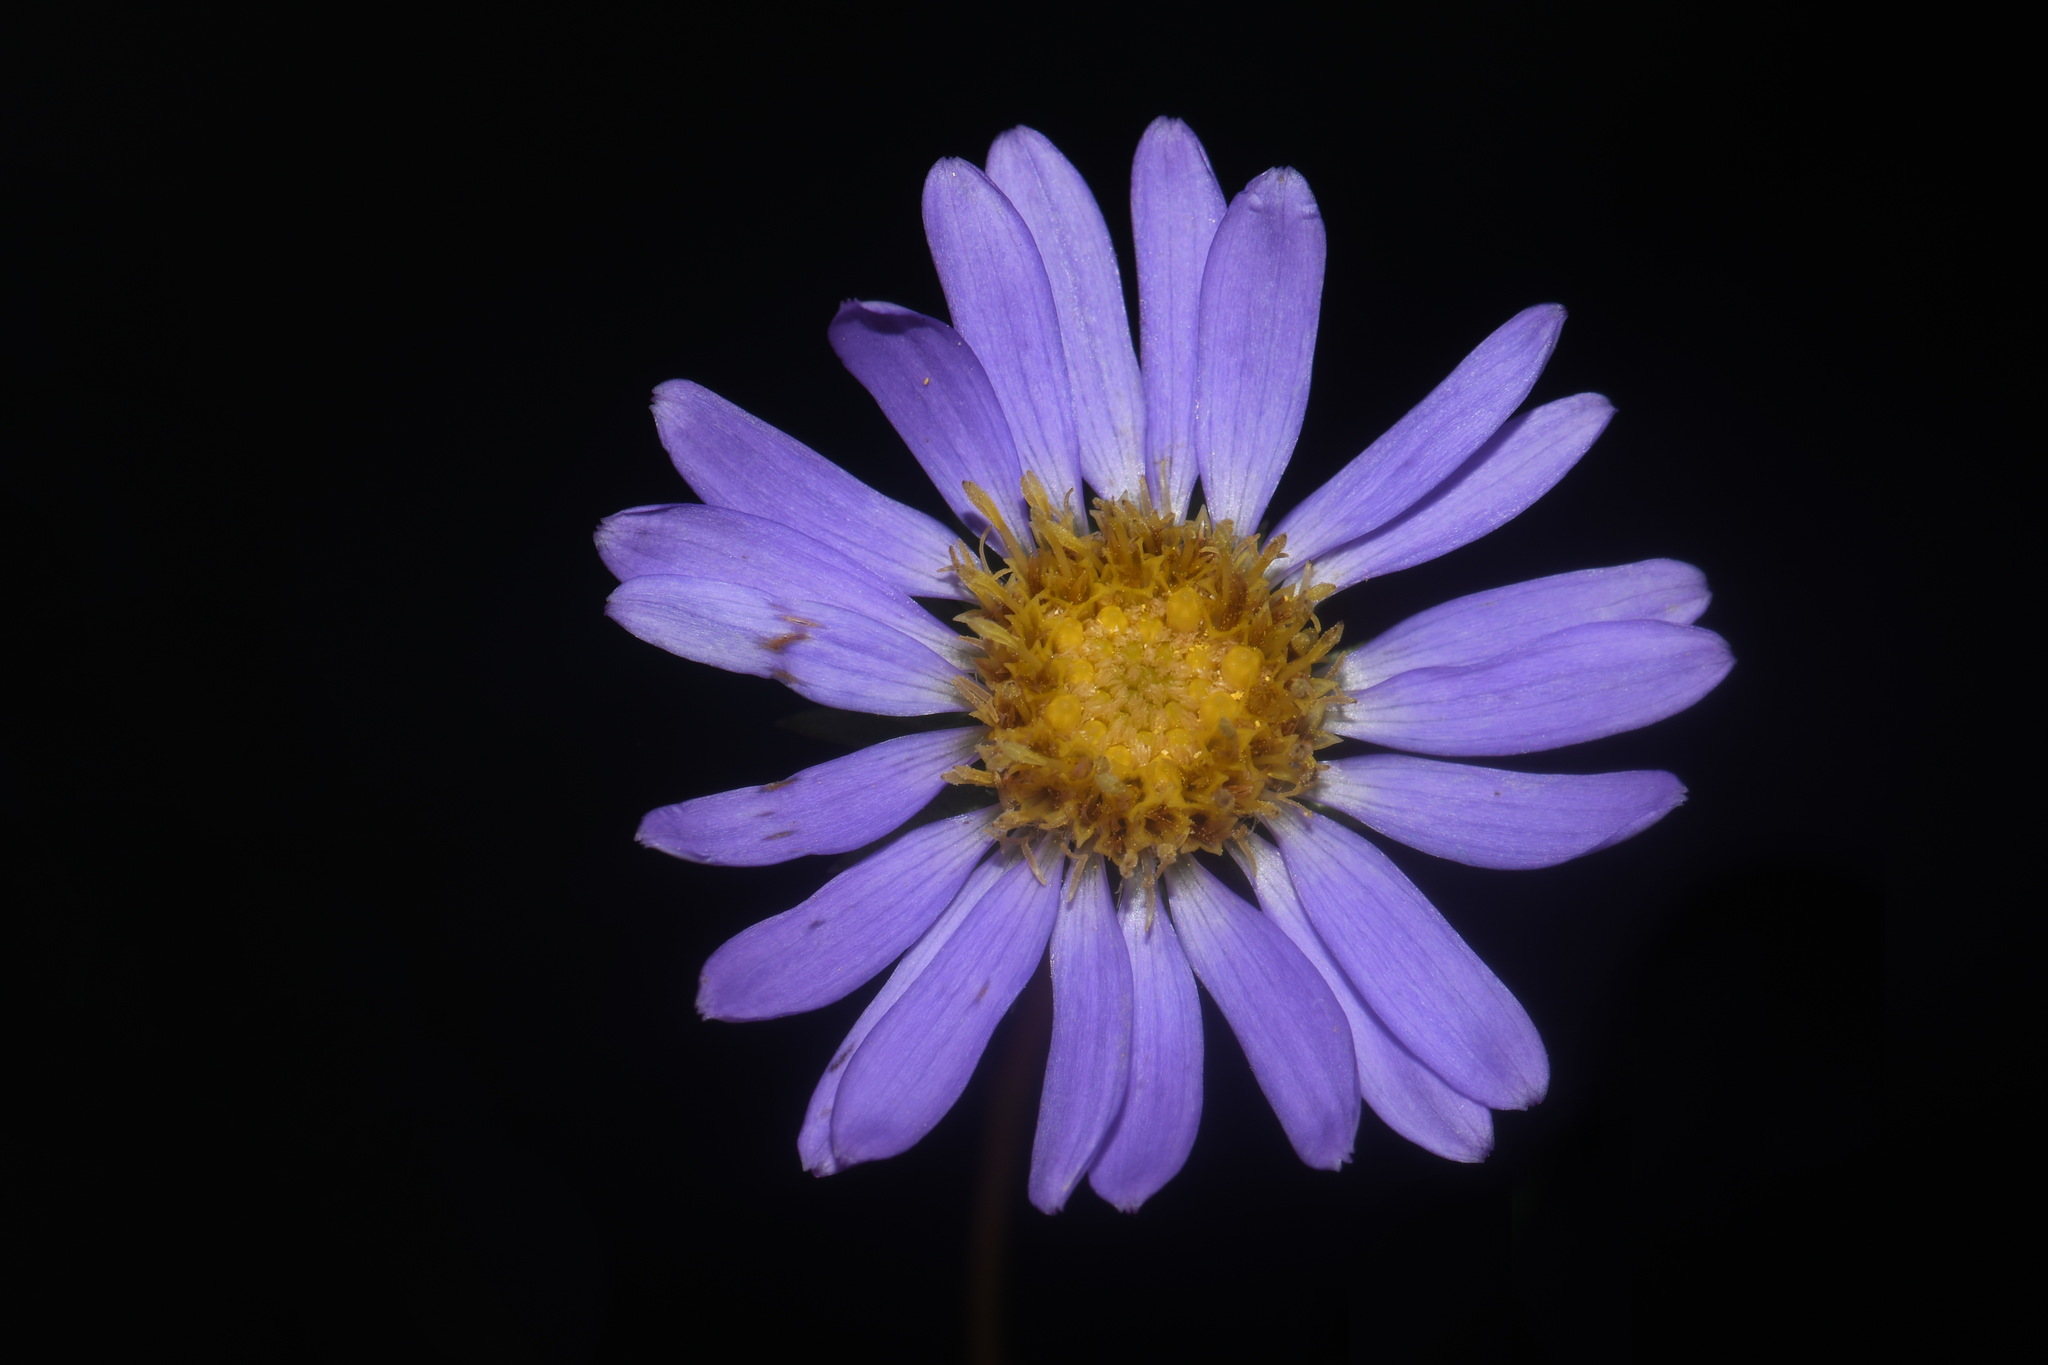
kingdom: Plantae
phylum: Tracheophyta
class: Magnoliopsida
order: Asterales
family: Asteraceae
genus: Eurybia
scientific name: Eurybia hemispherica
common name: Showy aster
